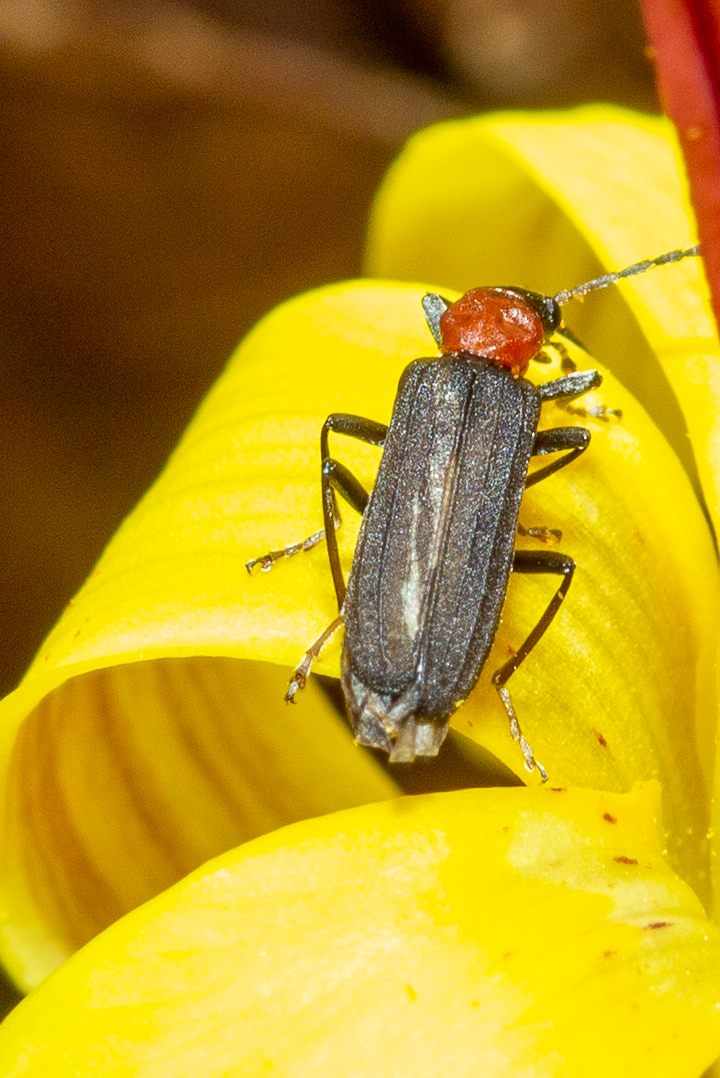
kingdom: Animalia
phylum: Arthropoda
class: Insecta
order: Coleoptera
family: Oedemeridae
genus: Ischnomera
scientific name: Ischnomera
